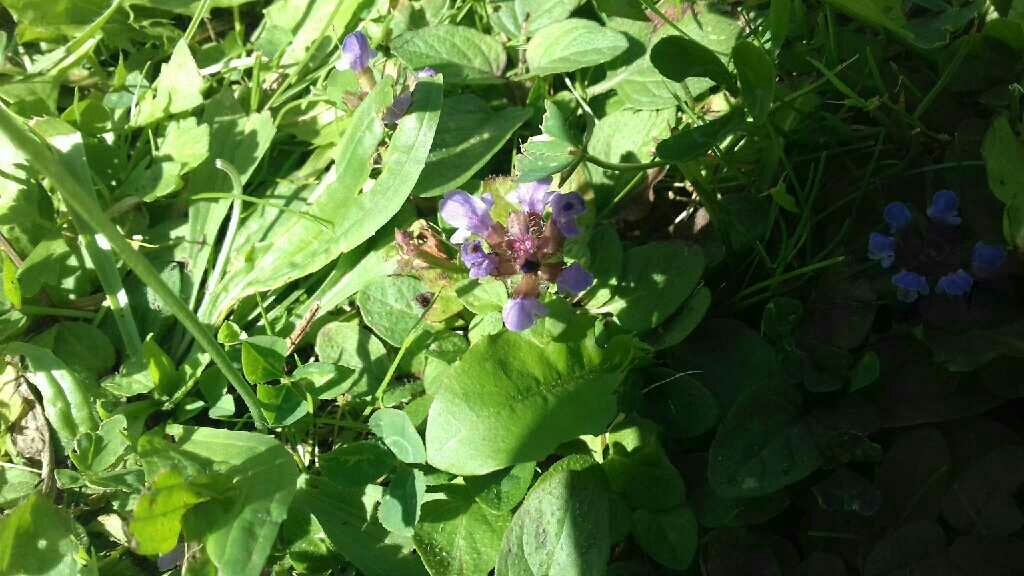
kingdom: Plantae
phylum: Tracheophyta
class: Magnoliopsida
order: Lamiales
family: Lamiaceae
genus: Prunella
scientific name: Prunella vulgaris
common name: Heal-all
